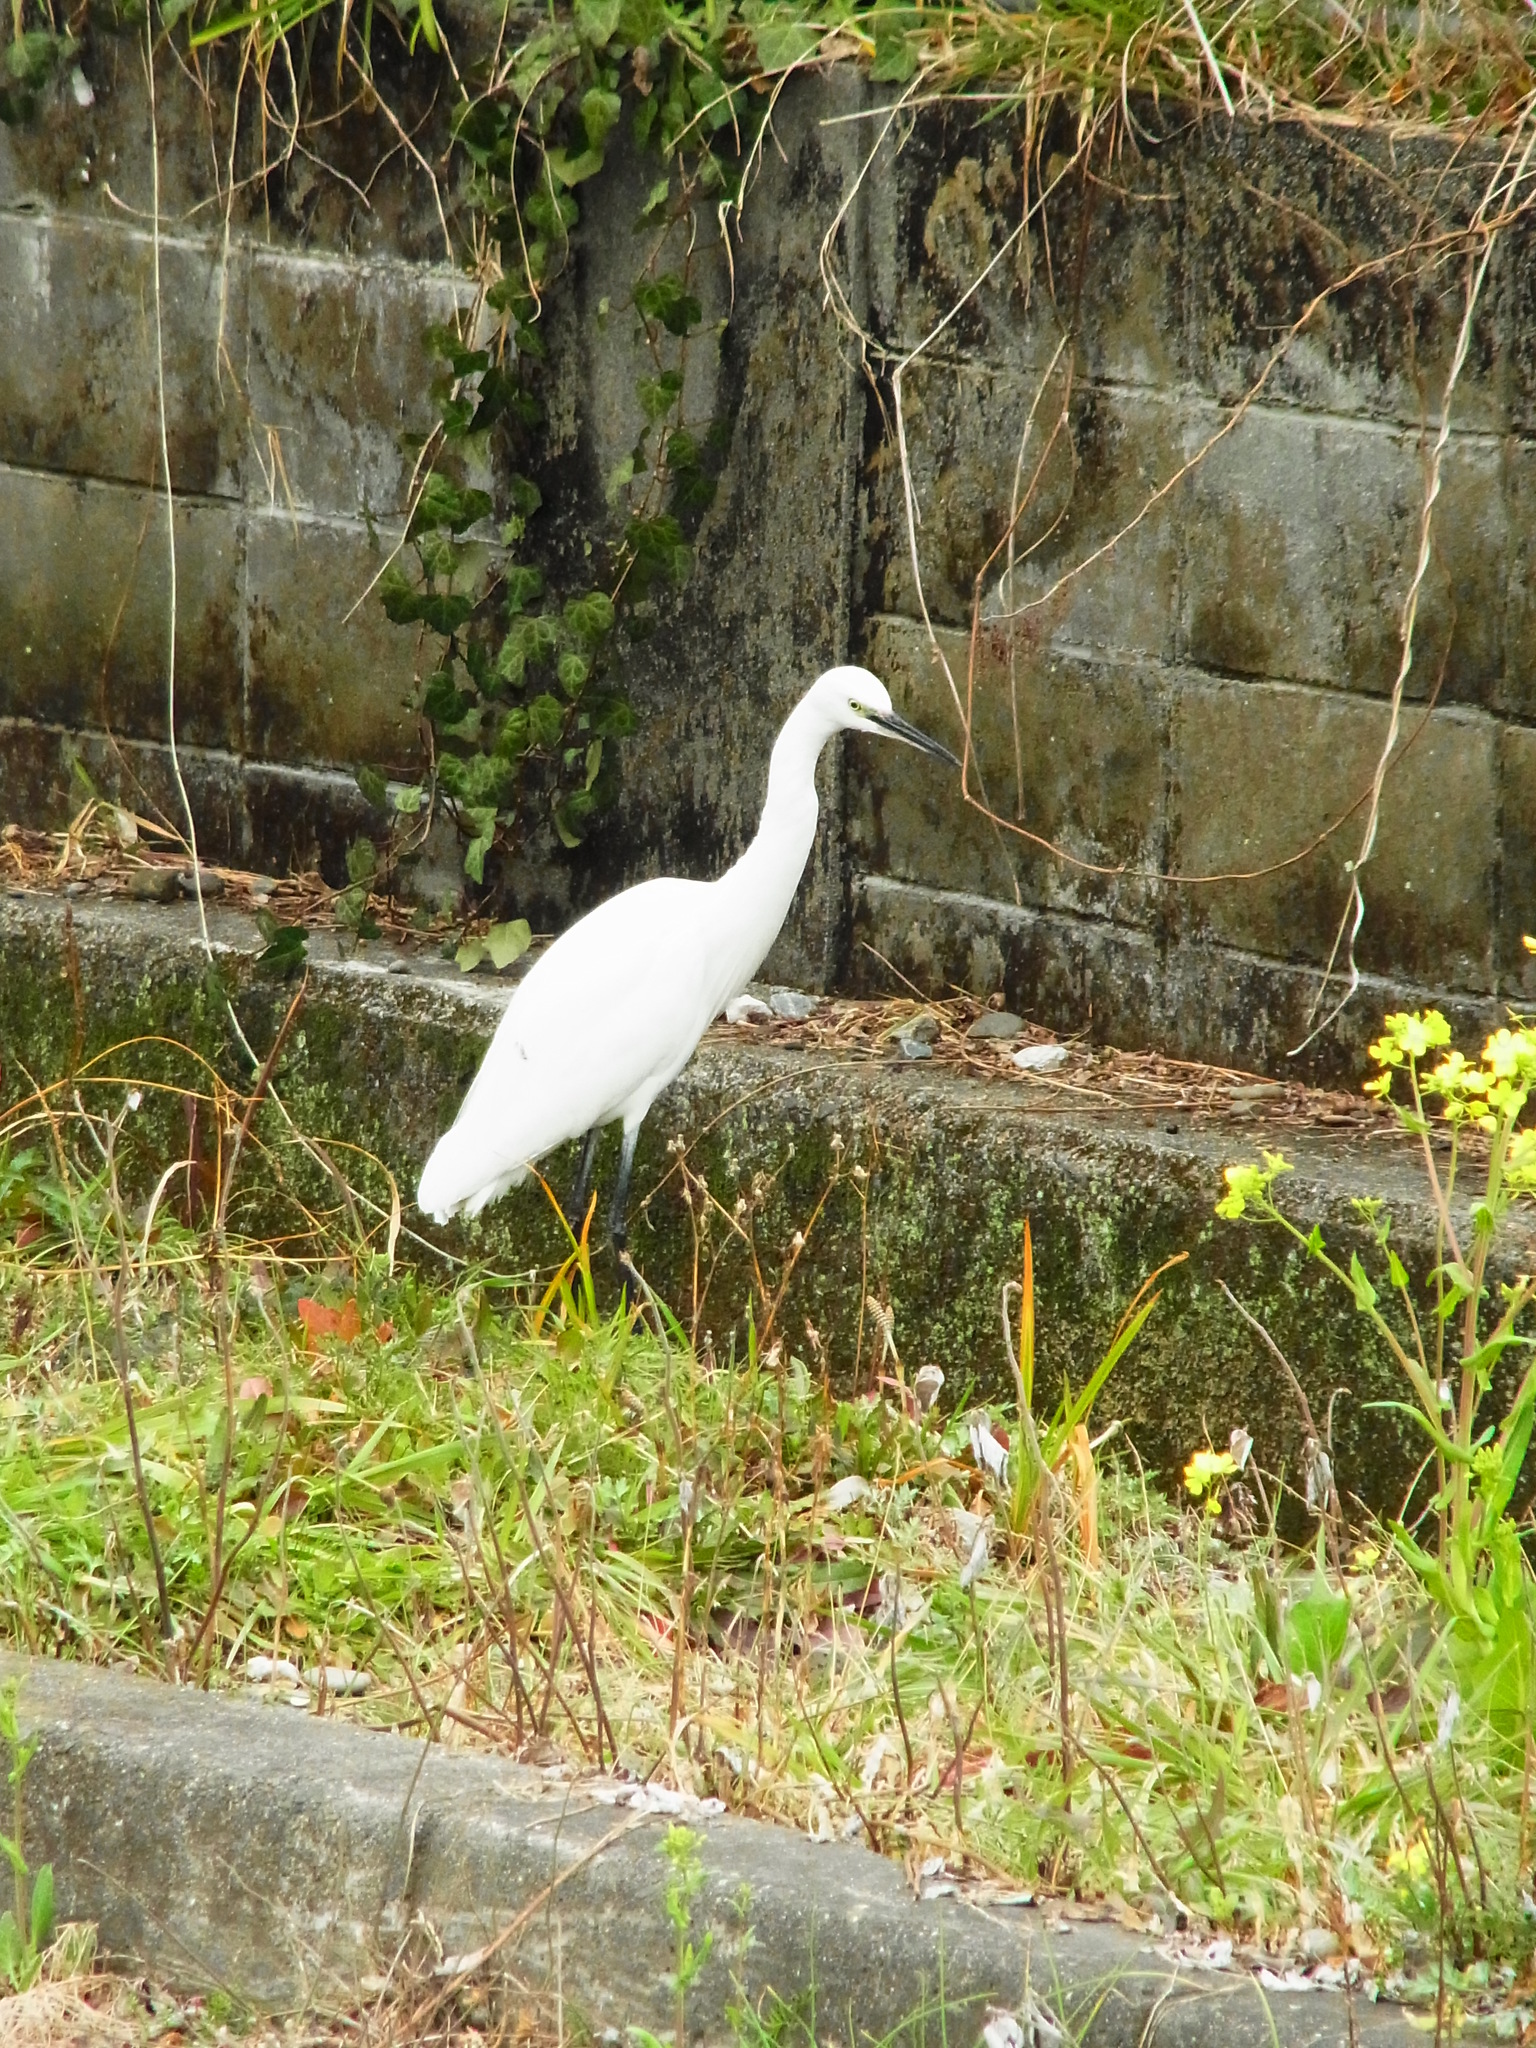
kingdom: Animalia
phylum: Chordata
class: Aves
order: Pelecaniformes
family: Ardeidae
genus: Egretta
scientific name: Egretta garzetta
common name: Little egret
